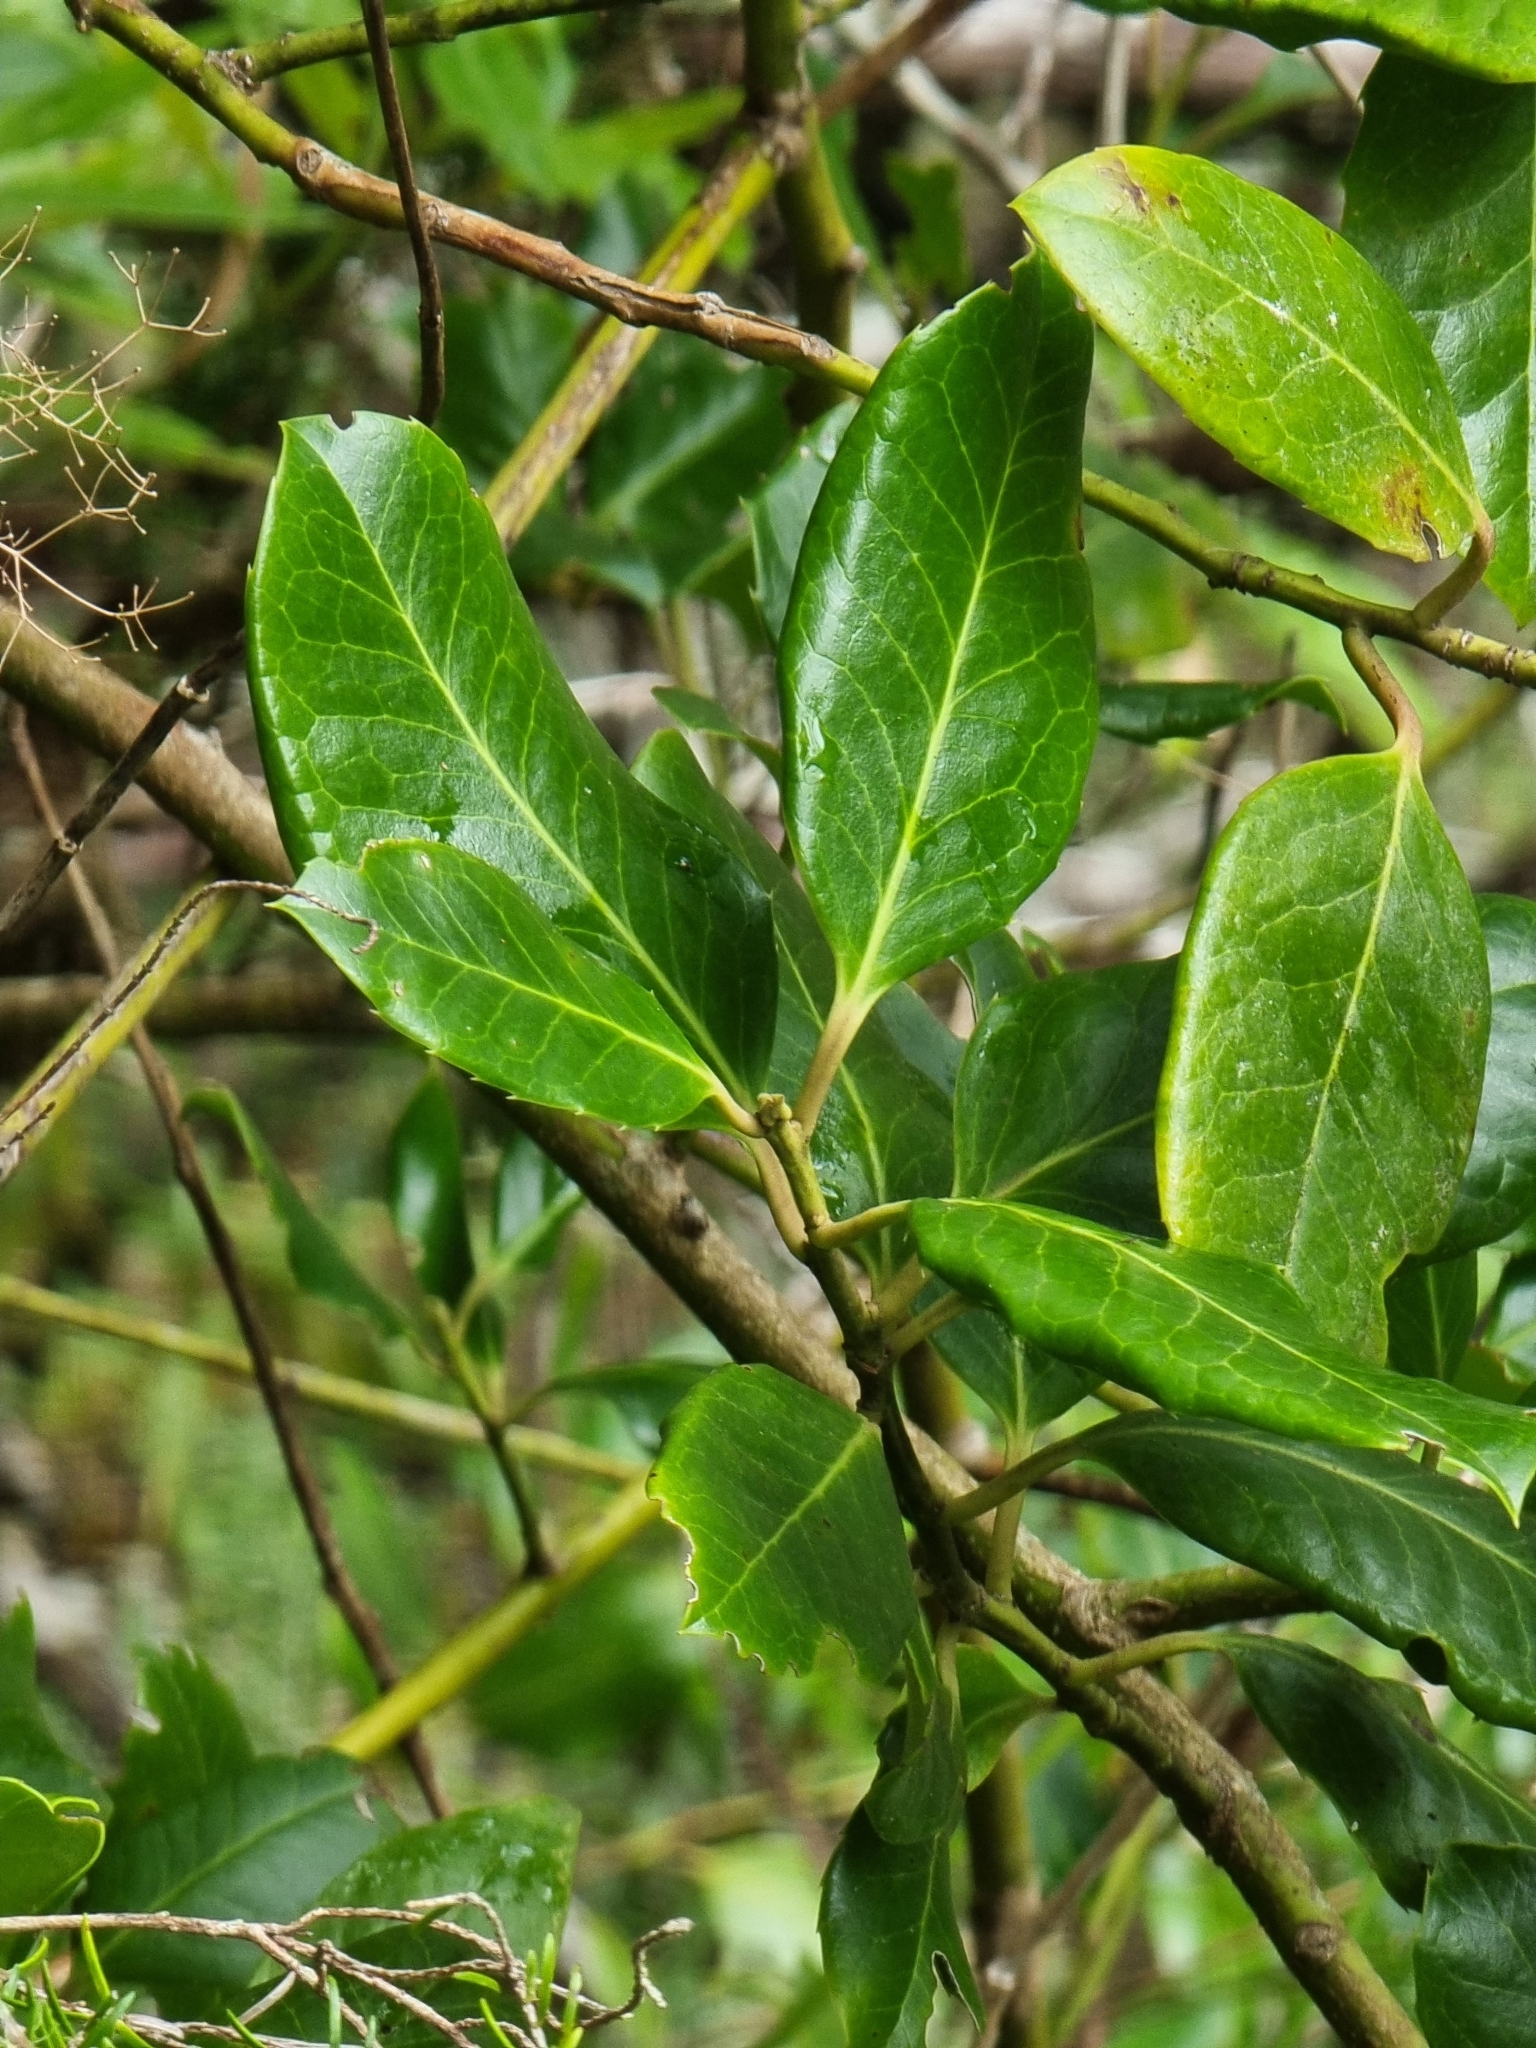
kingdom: Plantae
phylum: Tracheophyta
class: Magnoliopsida
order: Aquifoliales
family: Aquifoliaceae
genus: Ilex
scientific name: Ilex perado
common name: Madeira holly
